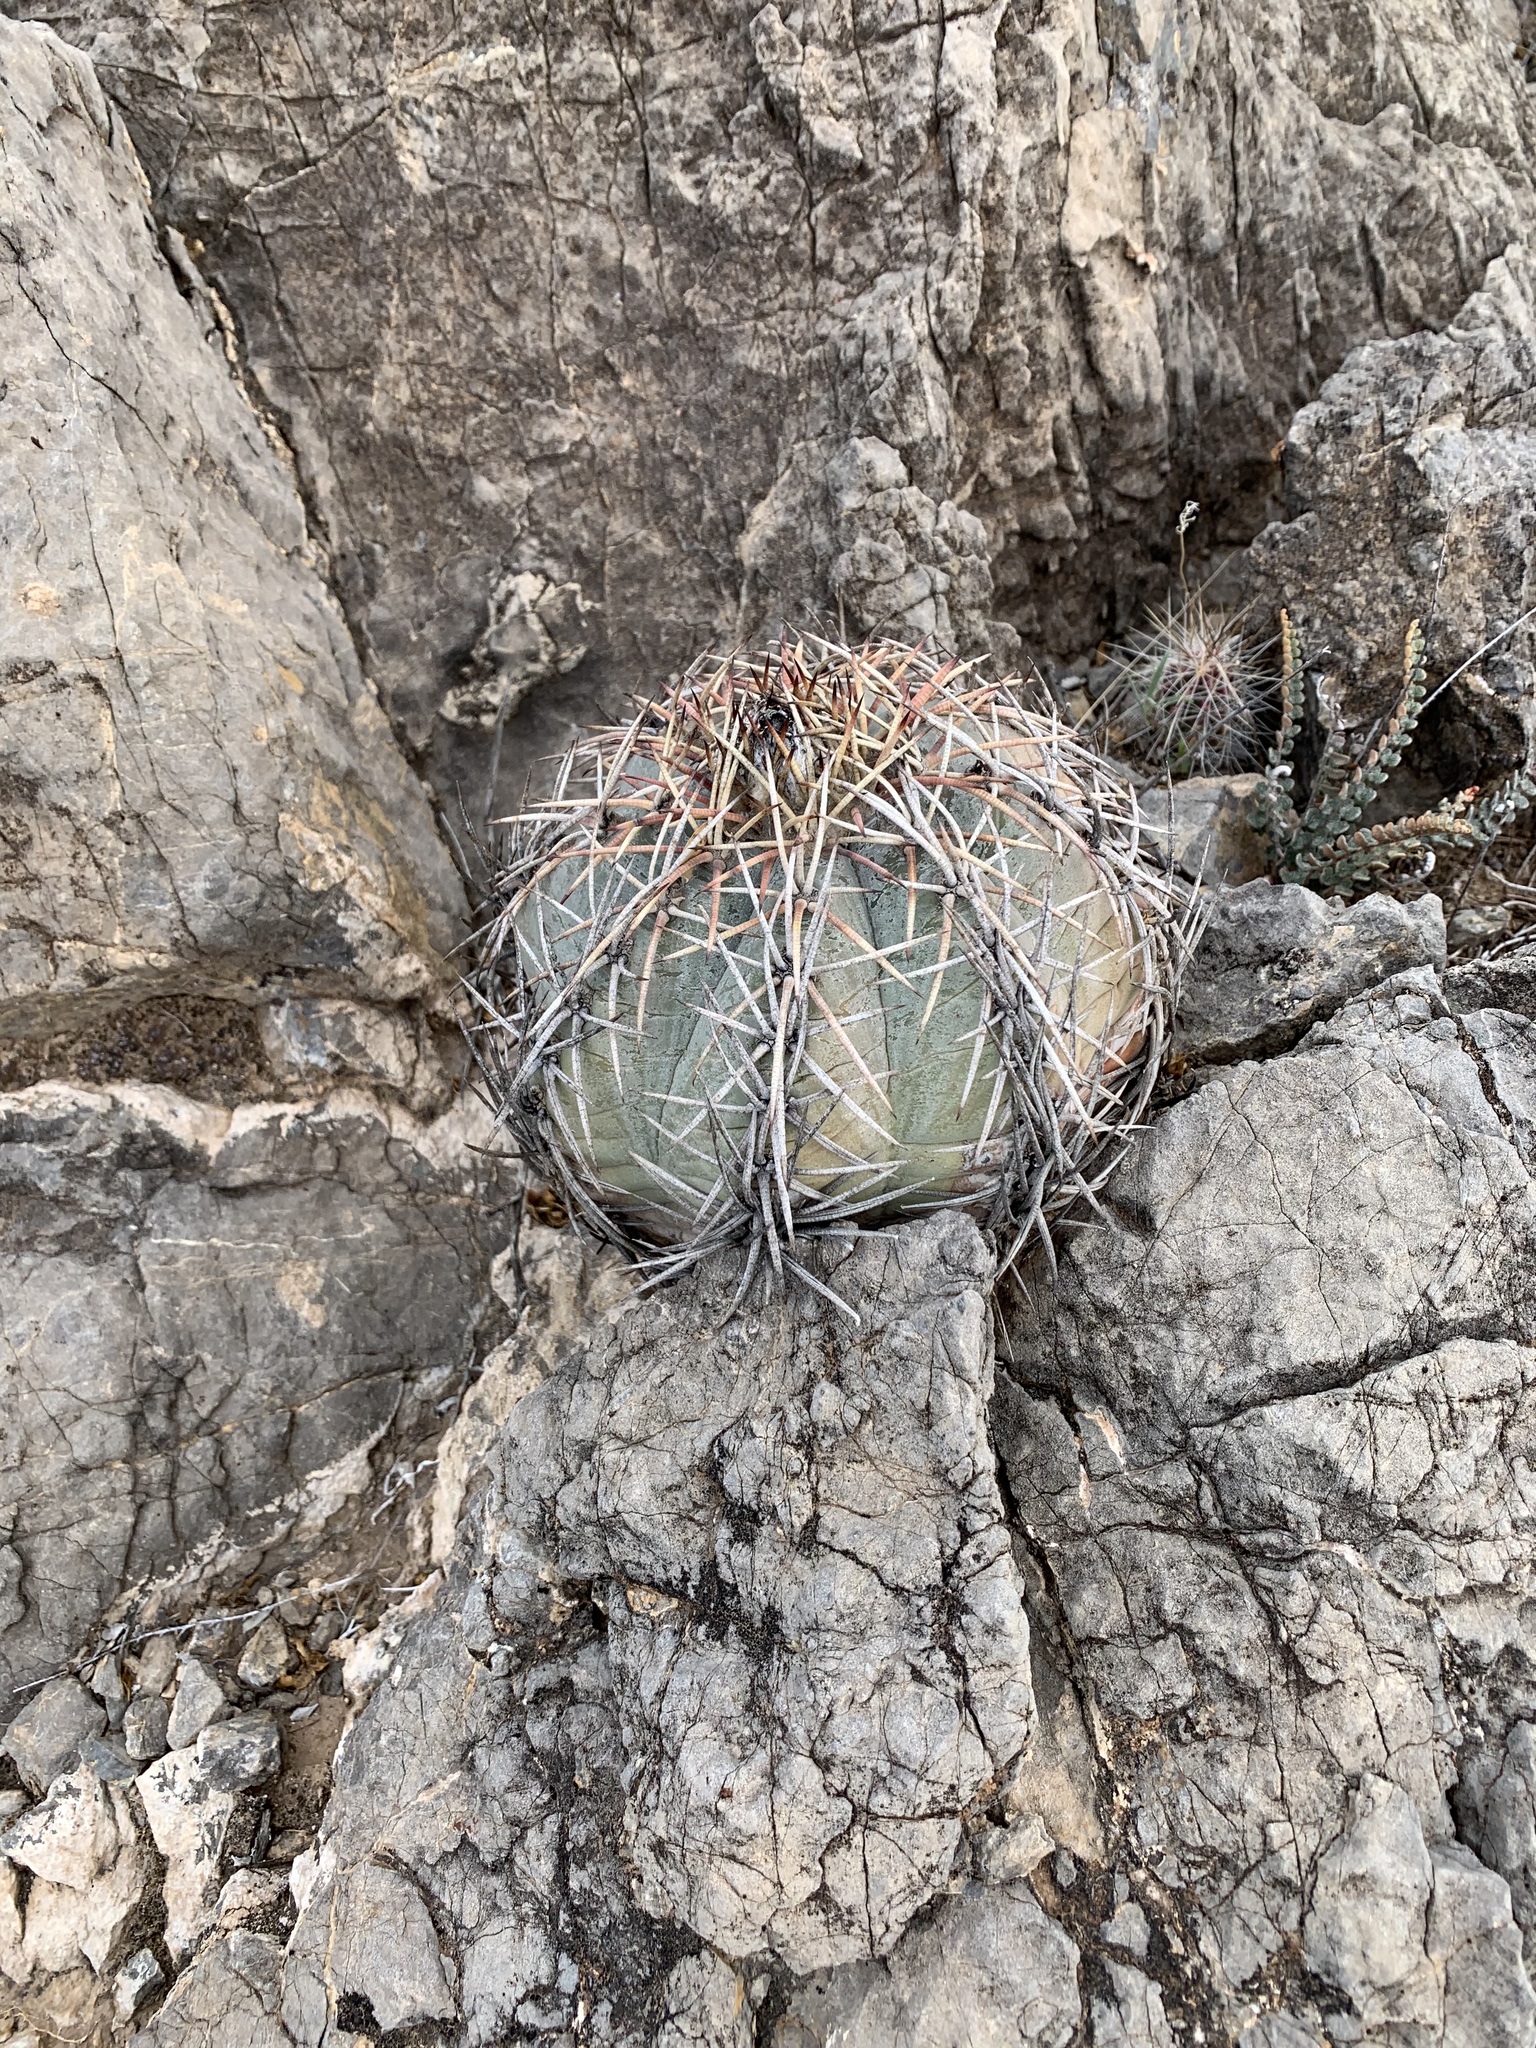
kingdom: Plantae
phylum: Tracheophyta
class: Magnoliopsida
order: Caryophyllales
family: Cactaceae
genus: Echinocactus
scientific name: Echinocactus horizonthalonius
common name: Devilshead
